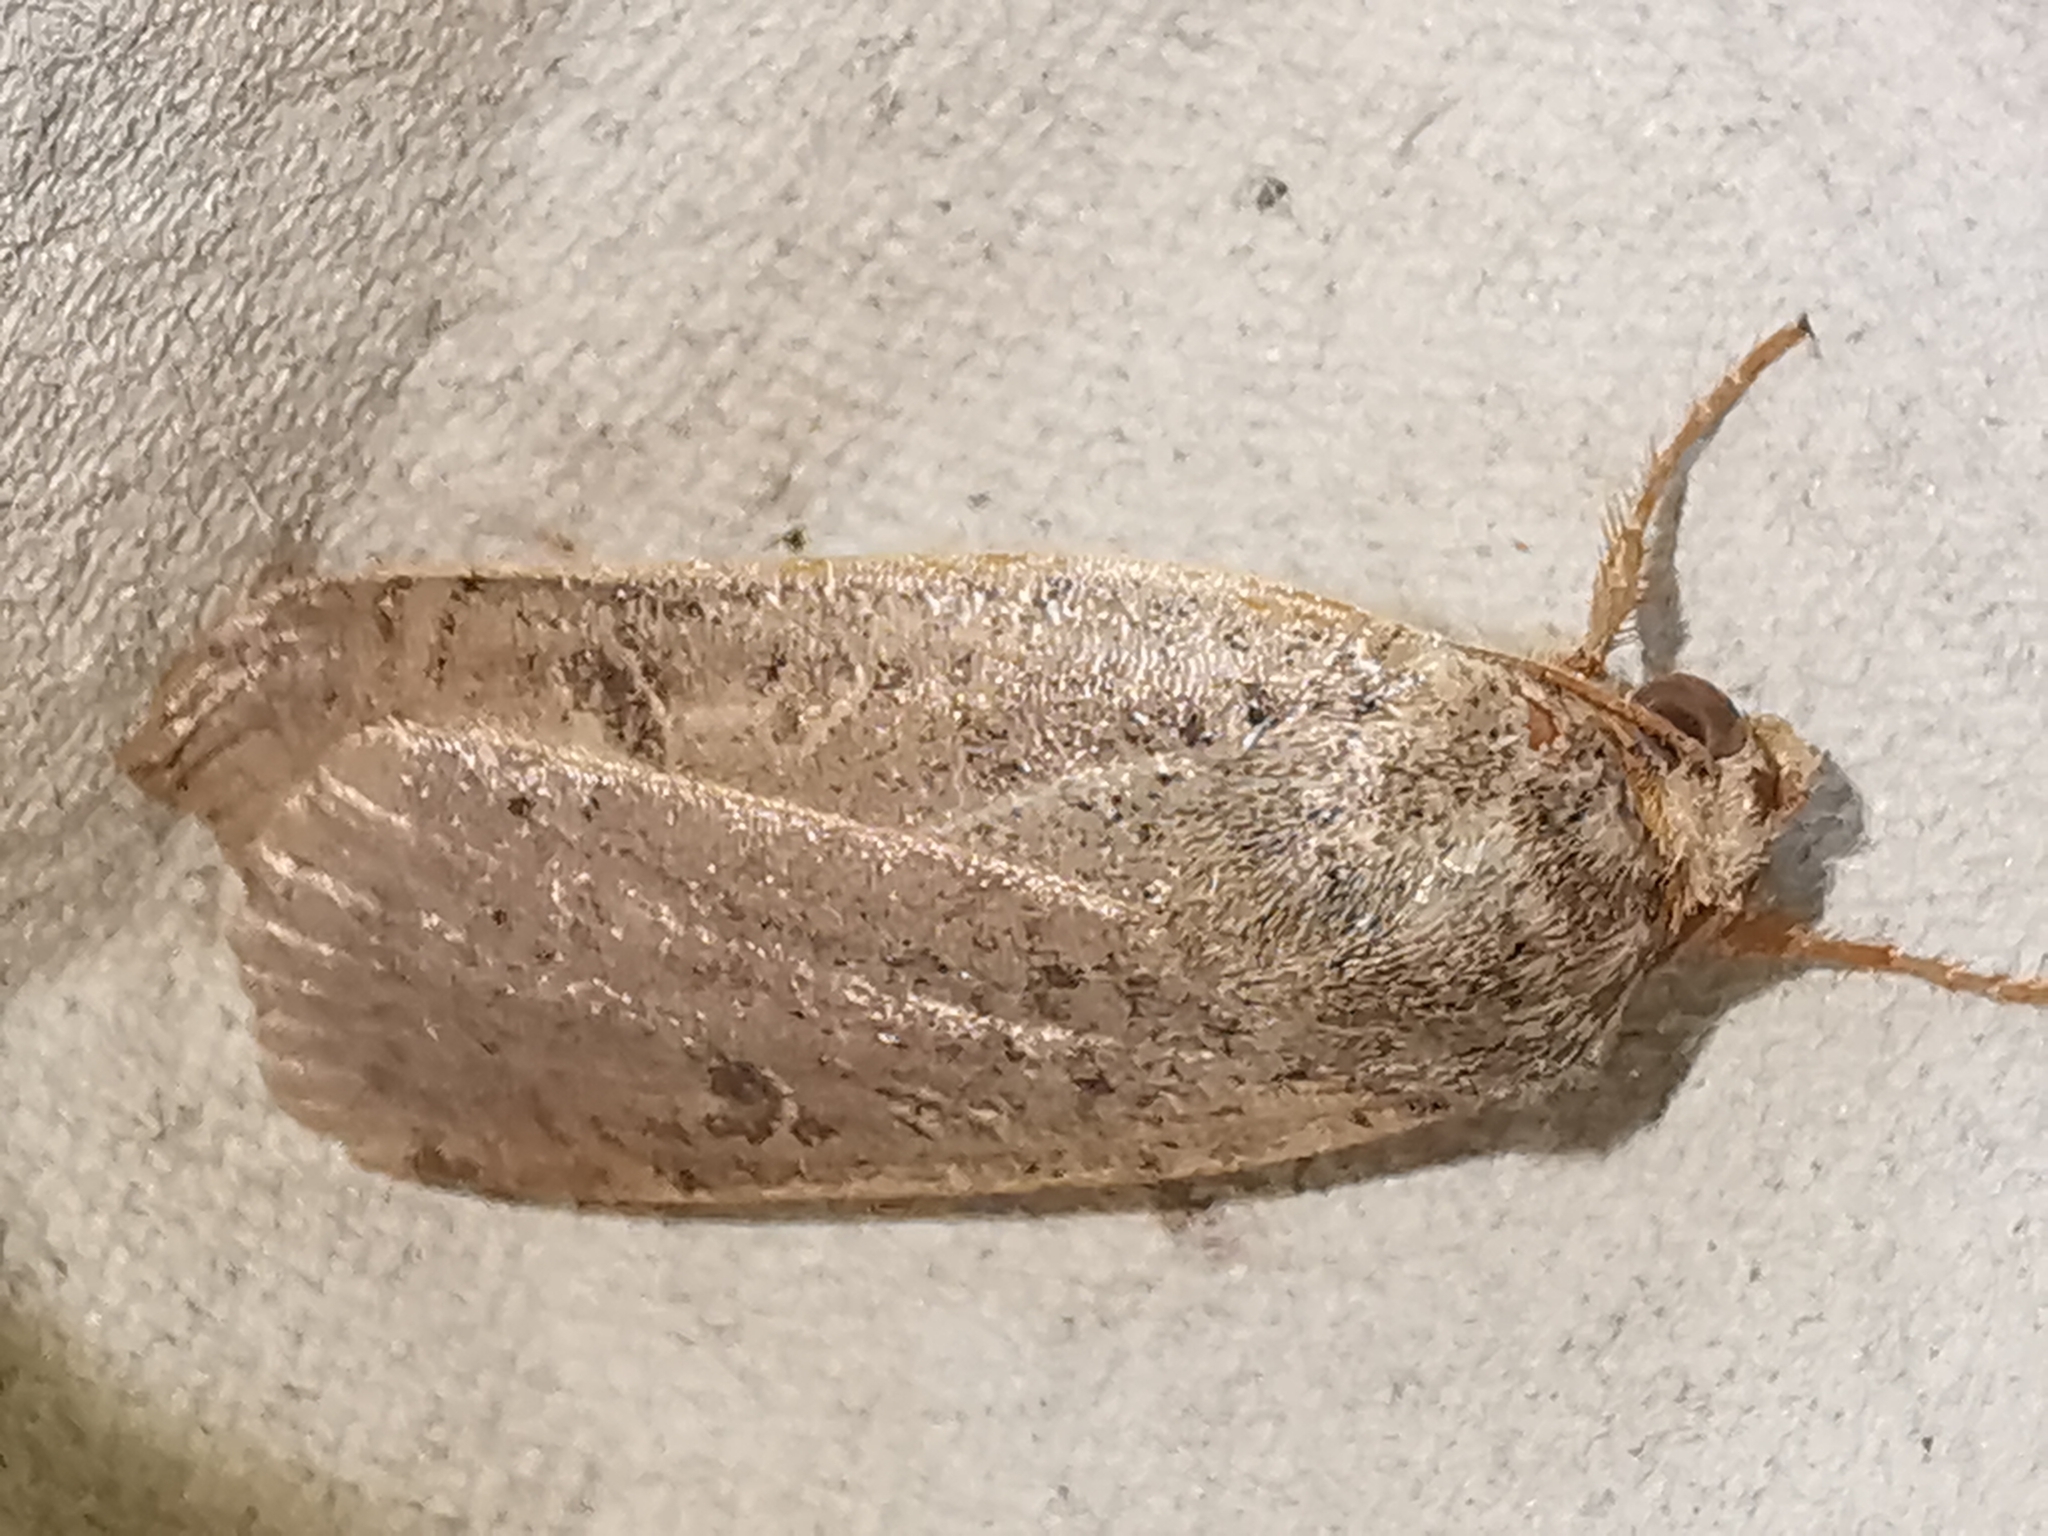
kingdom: Animalia
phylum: Arthropoda
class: Insecta
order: Lepidoptera
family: Noctuidae
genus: Noctua
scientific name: Noctua comes
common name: Lesser yellow underwing
